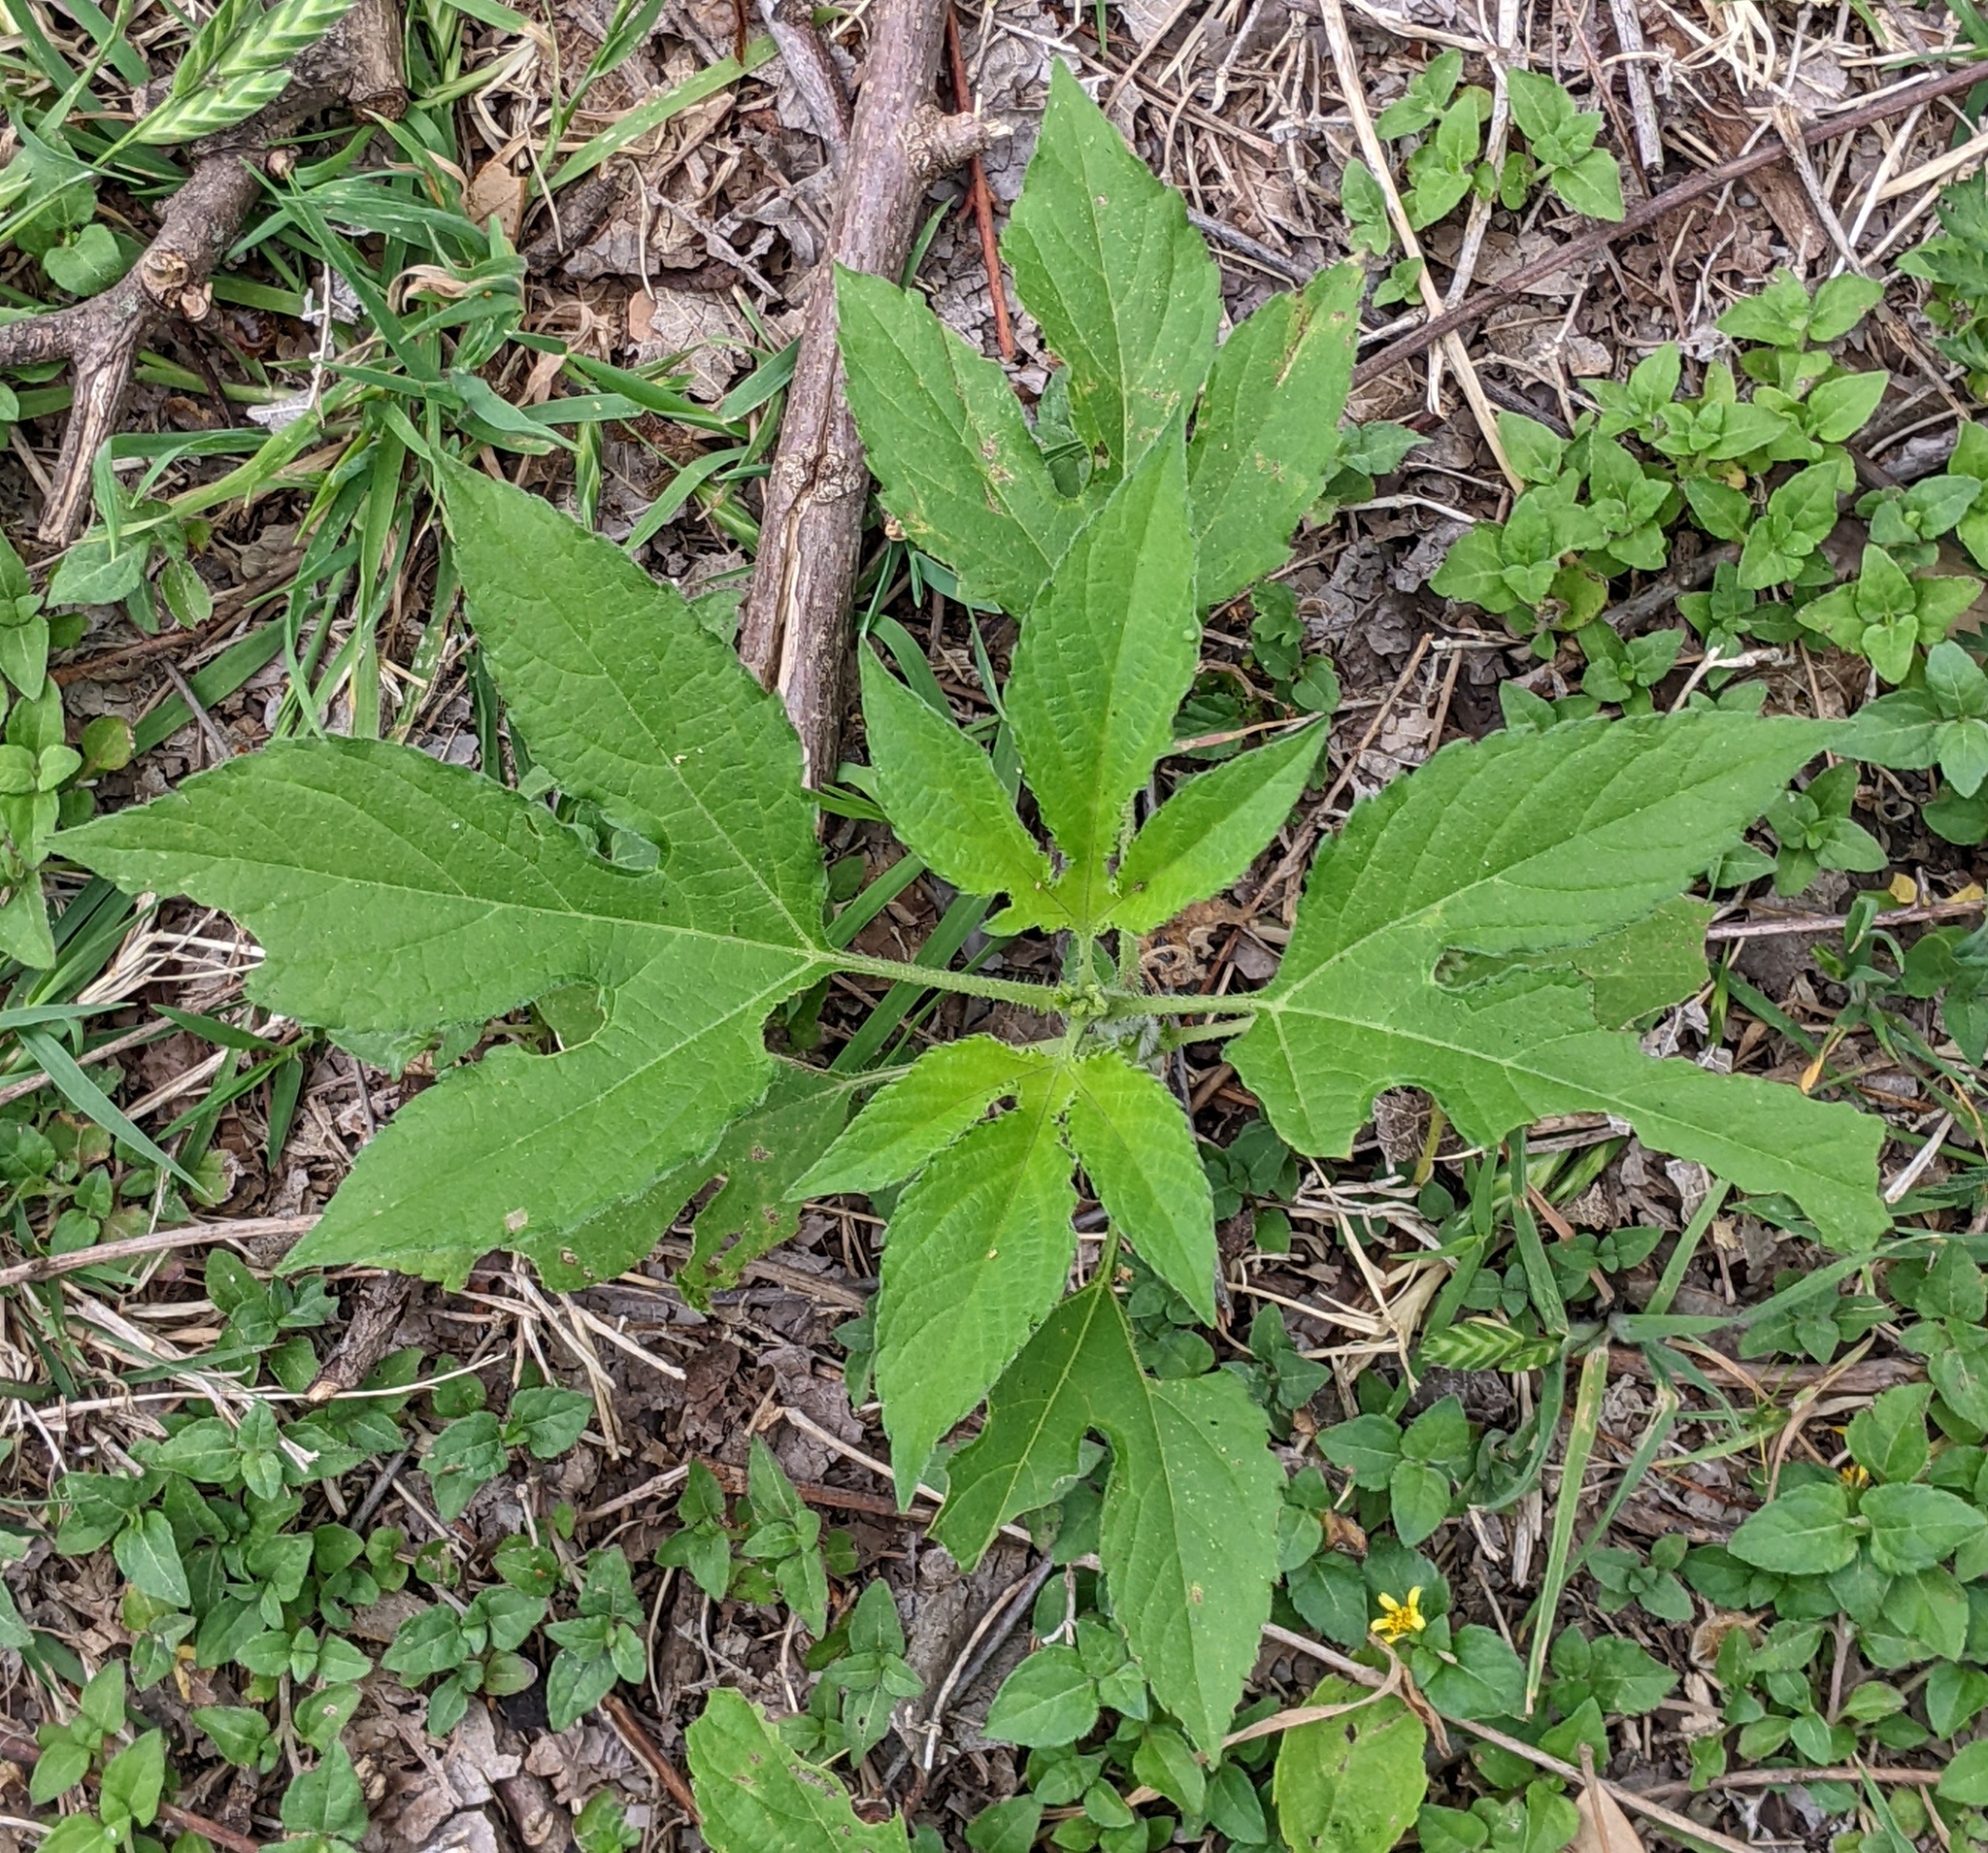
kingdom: Plantae
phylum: Tracheophyta
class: Magnoliopsida
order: Asterales
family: Asteraceae
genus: Ambrosia
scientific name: Ambrosia trifida
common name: Giant ragweed
